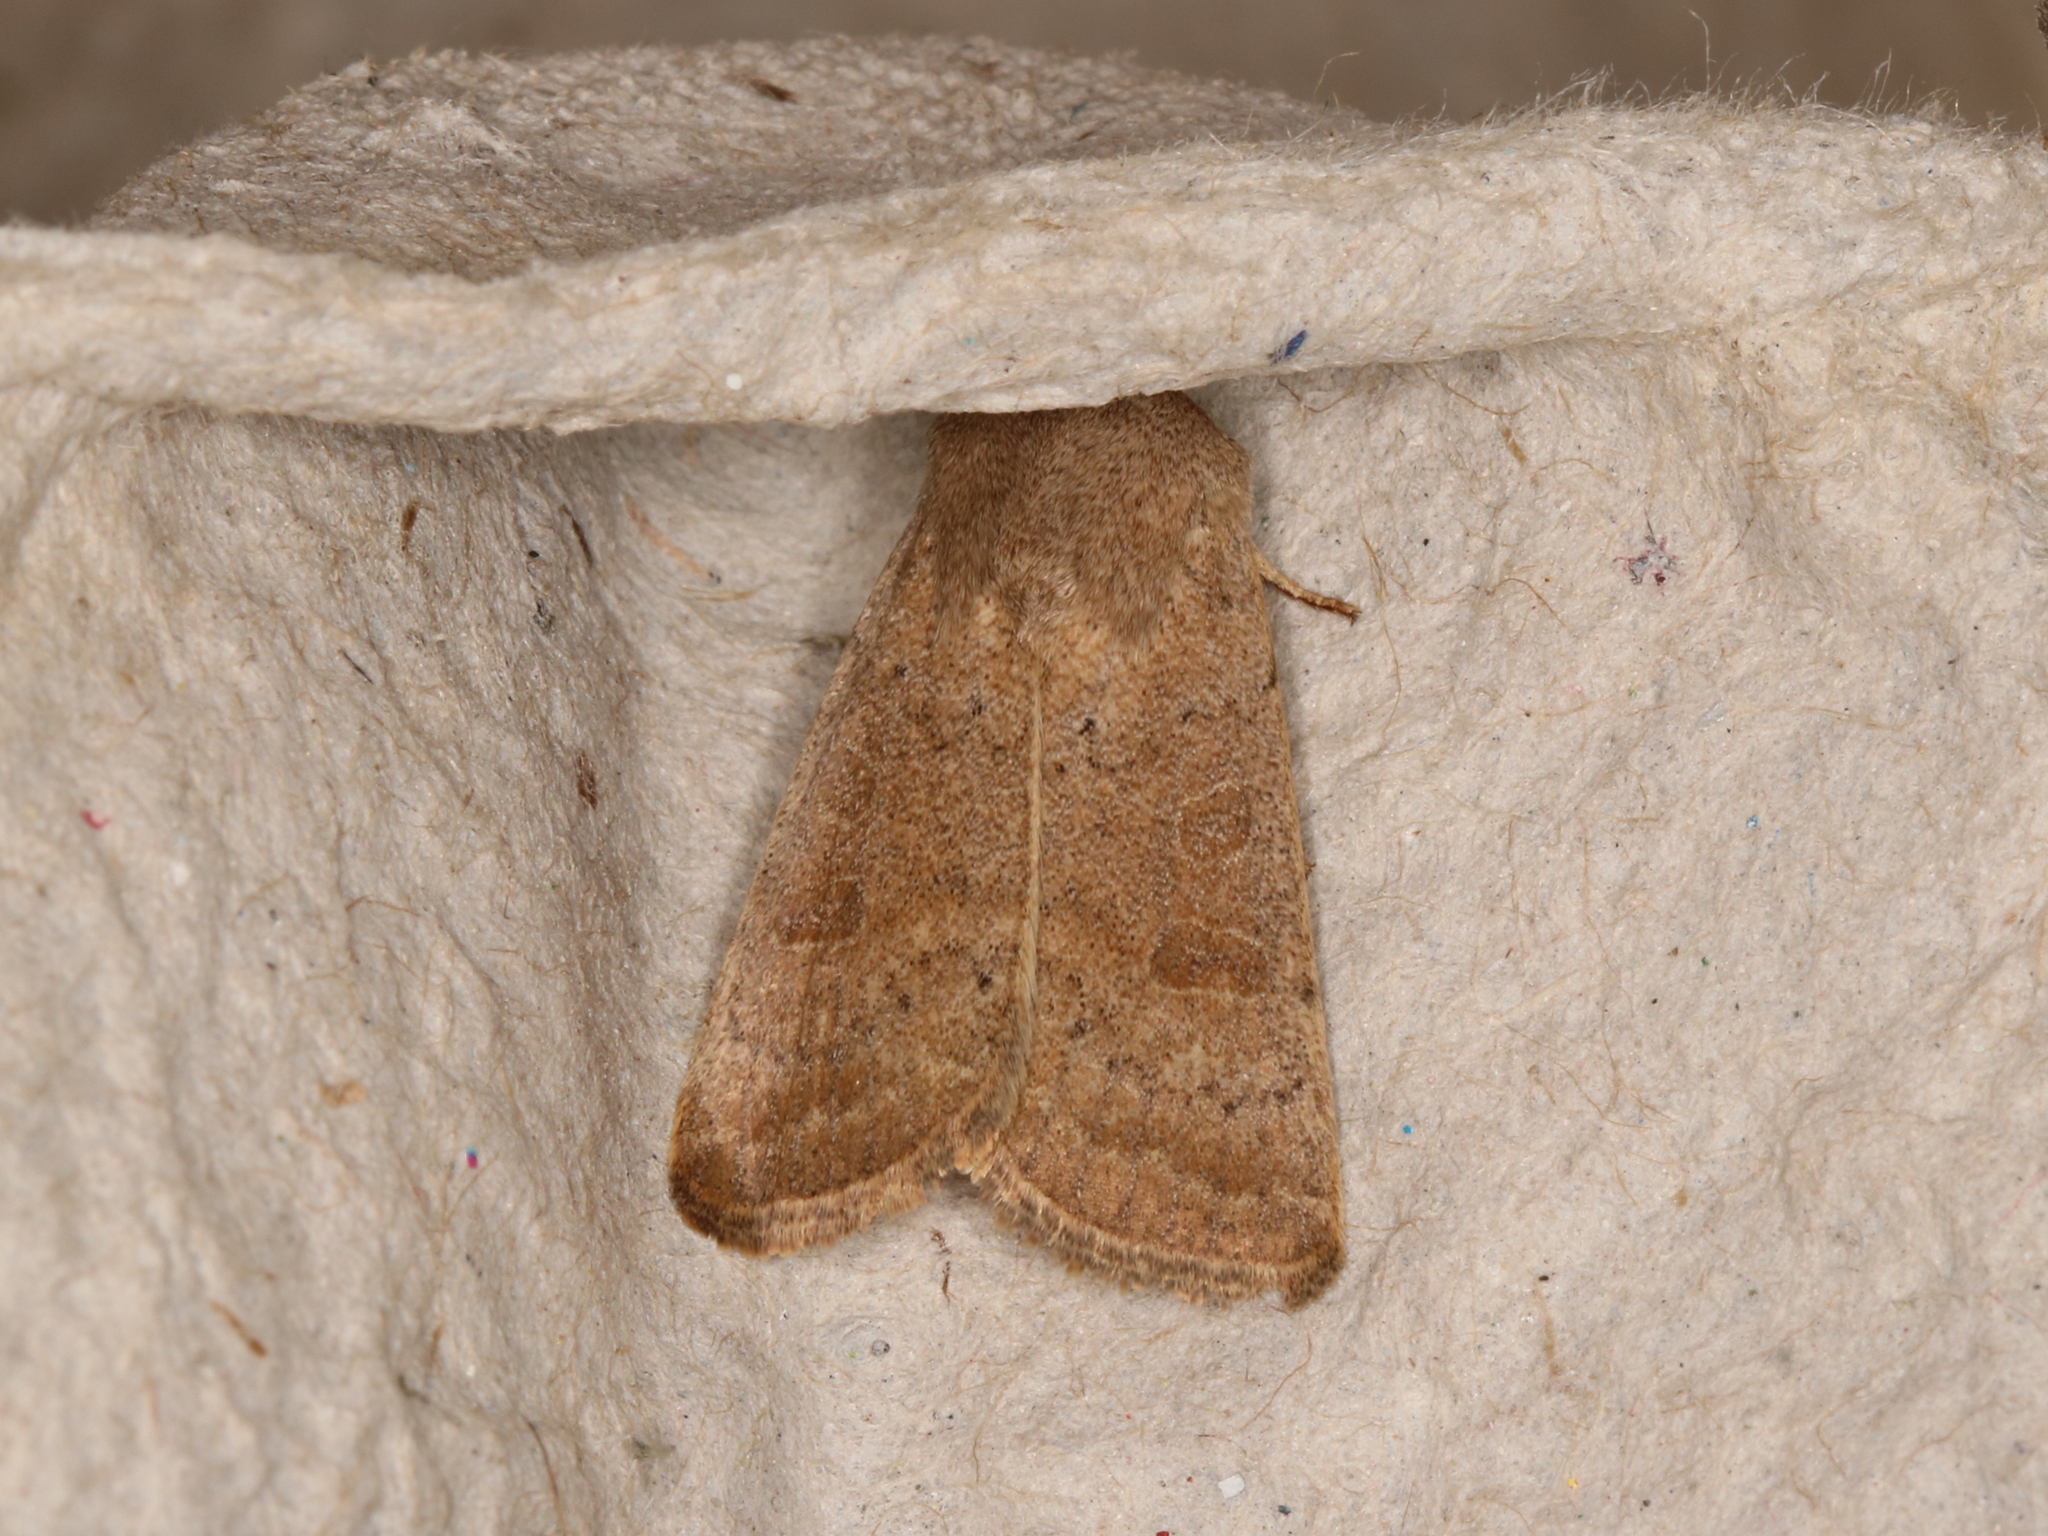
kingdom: Animalia
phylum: Arthropoda
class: Insecta
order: Lepidoptera
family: Noctuidae
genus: Hoplodrina
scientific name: Hoplodrina octogenaria
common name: Uncertain
